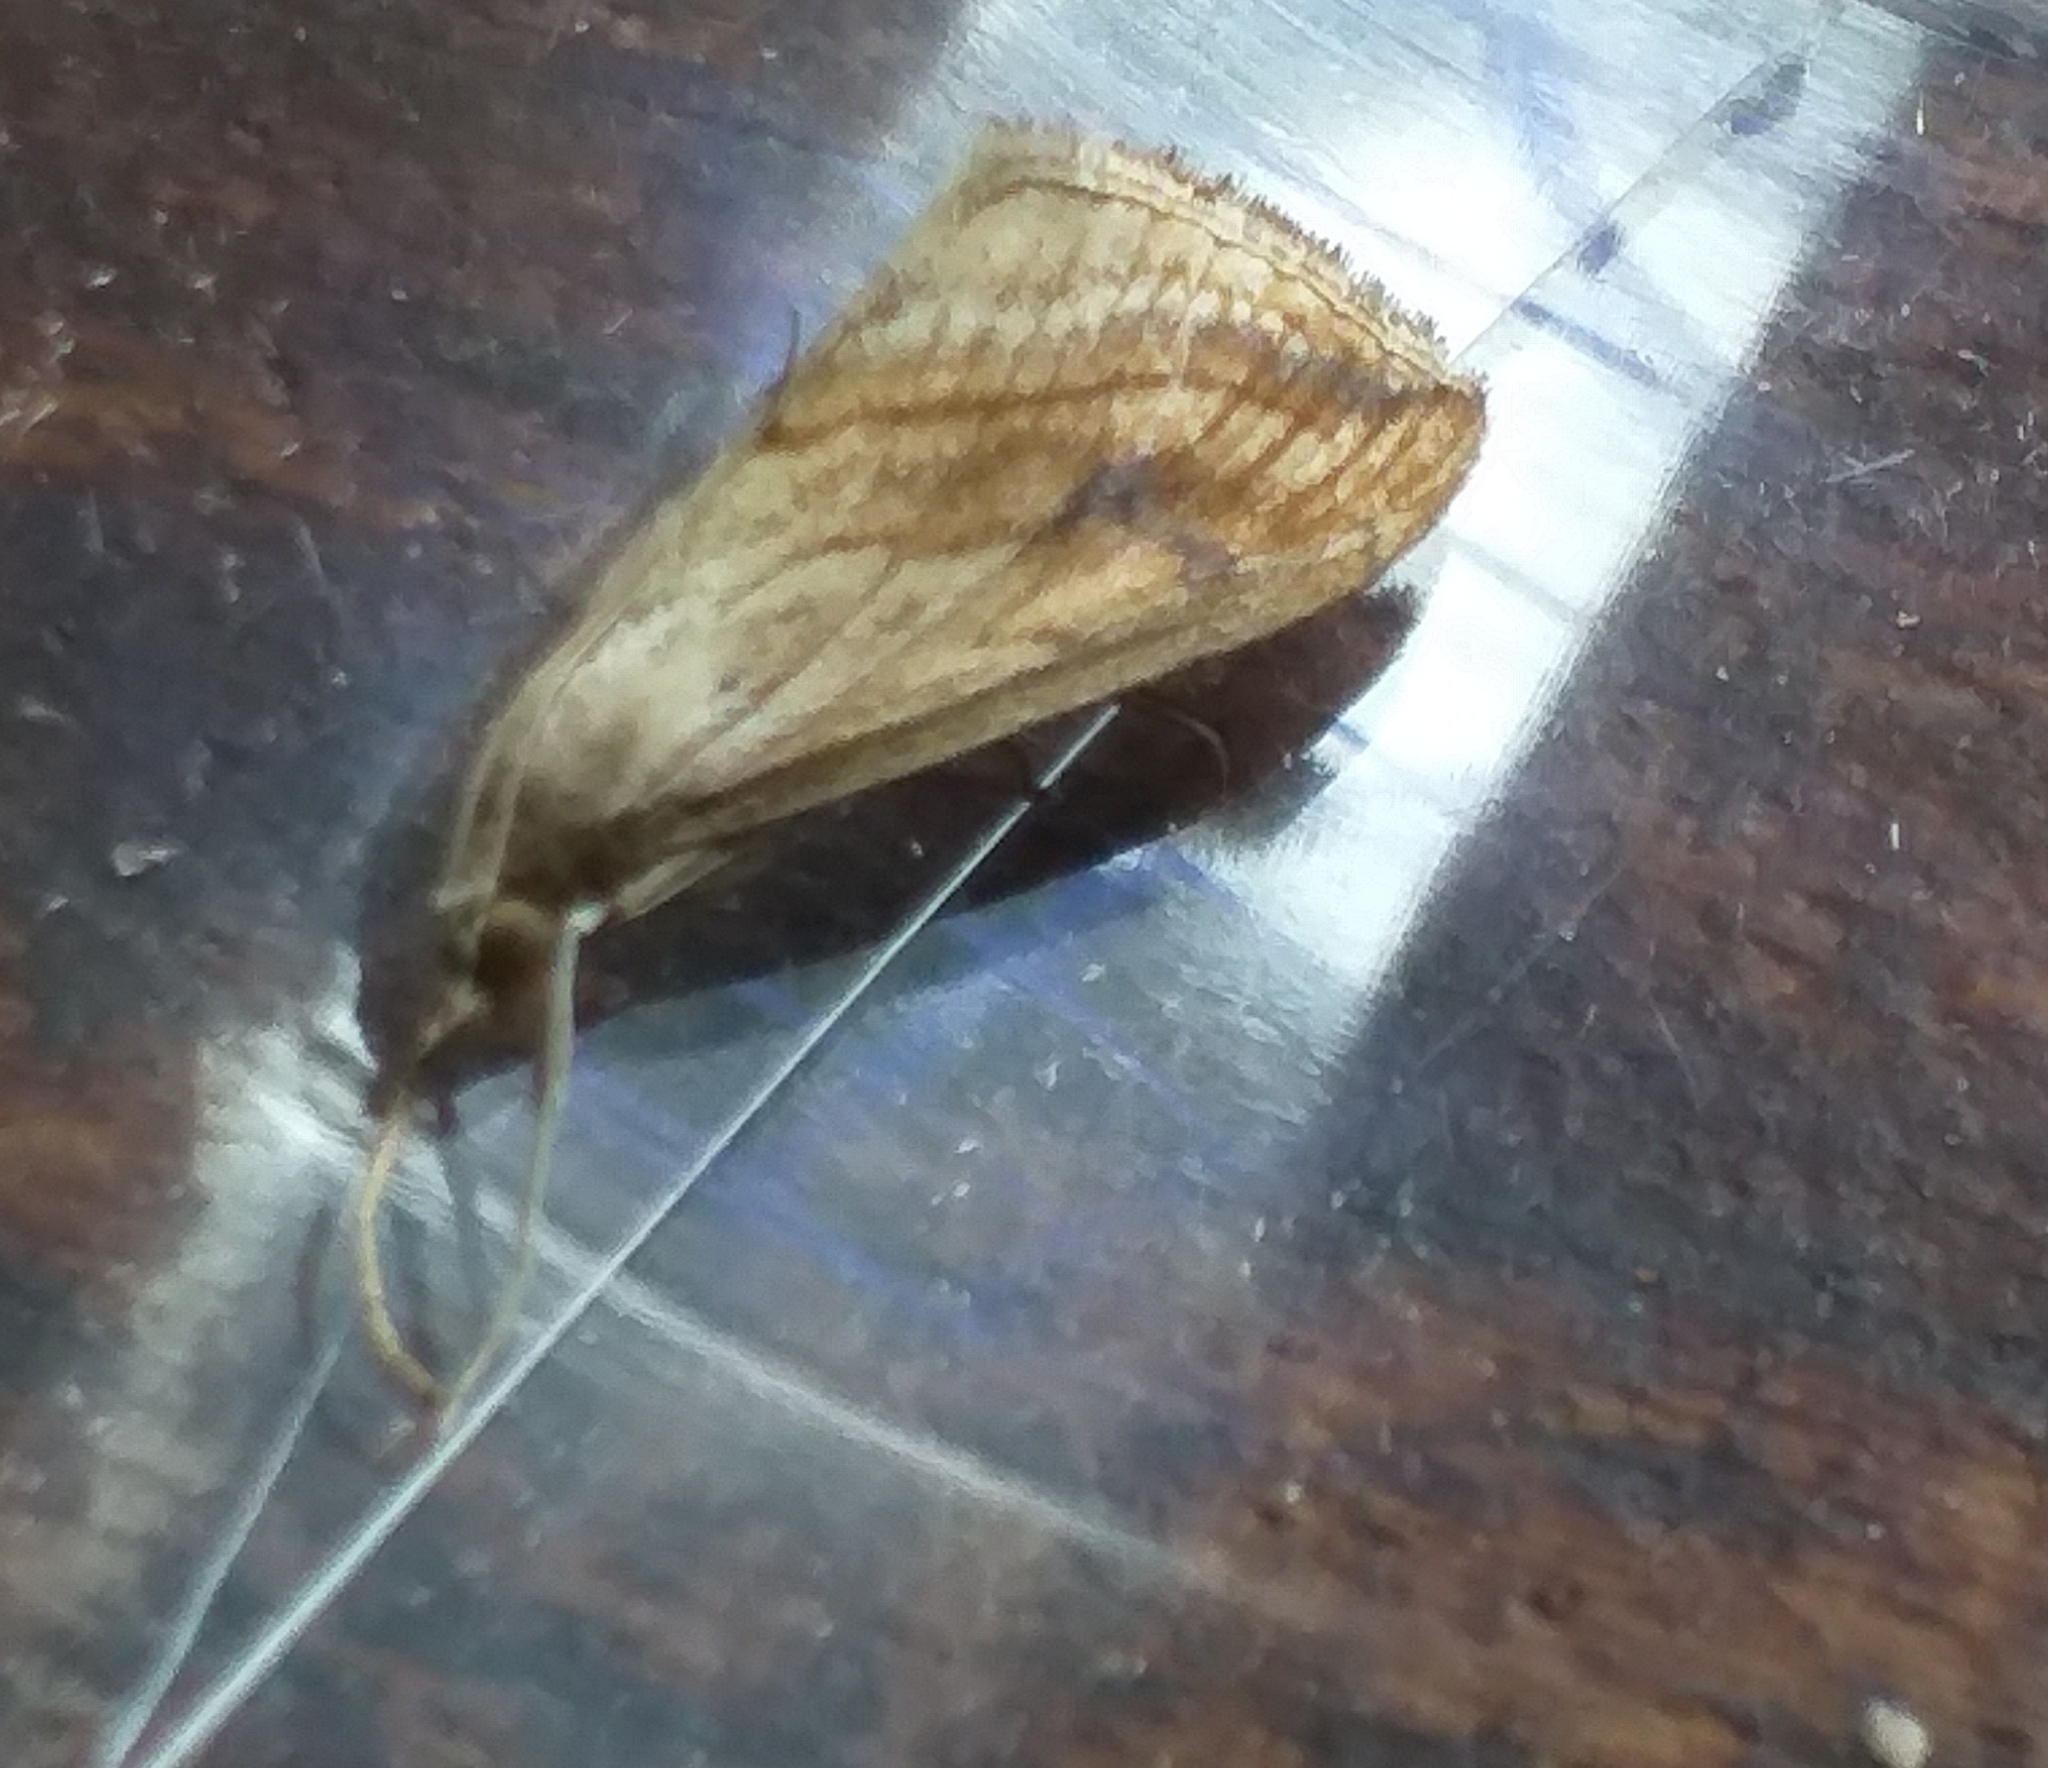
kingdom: Animalia
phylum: Arthropoda
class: Insecta
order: Lepidoptera
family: Crambidae
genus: Evergestis
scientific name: Evergestis forficalis
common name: Garden pebble
